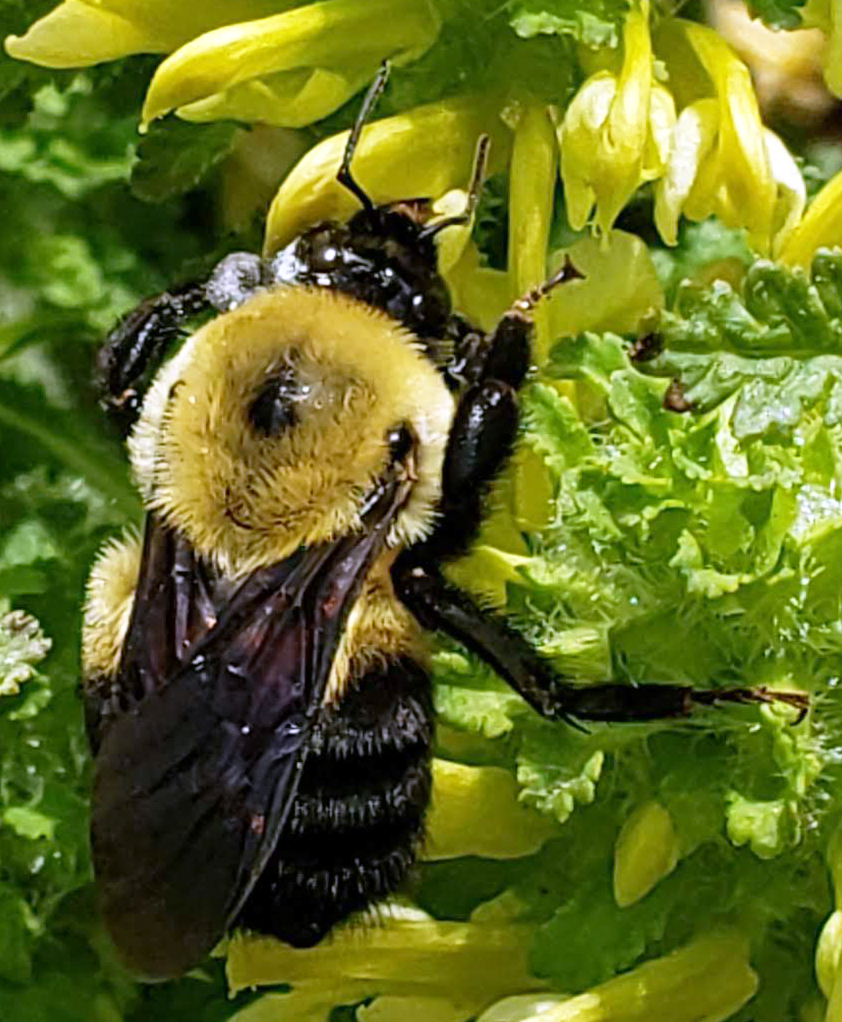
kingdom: Animalia
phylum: Arthropoda
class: Insecta
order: Hymenoptera
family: Apidae
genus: Bombus
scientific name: Bombus griseocollis
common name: Brown-belted bumble bee
